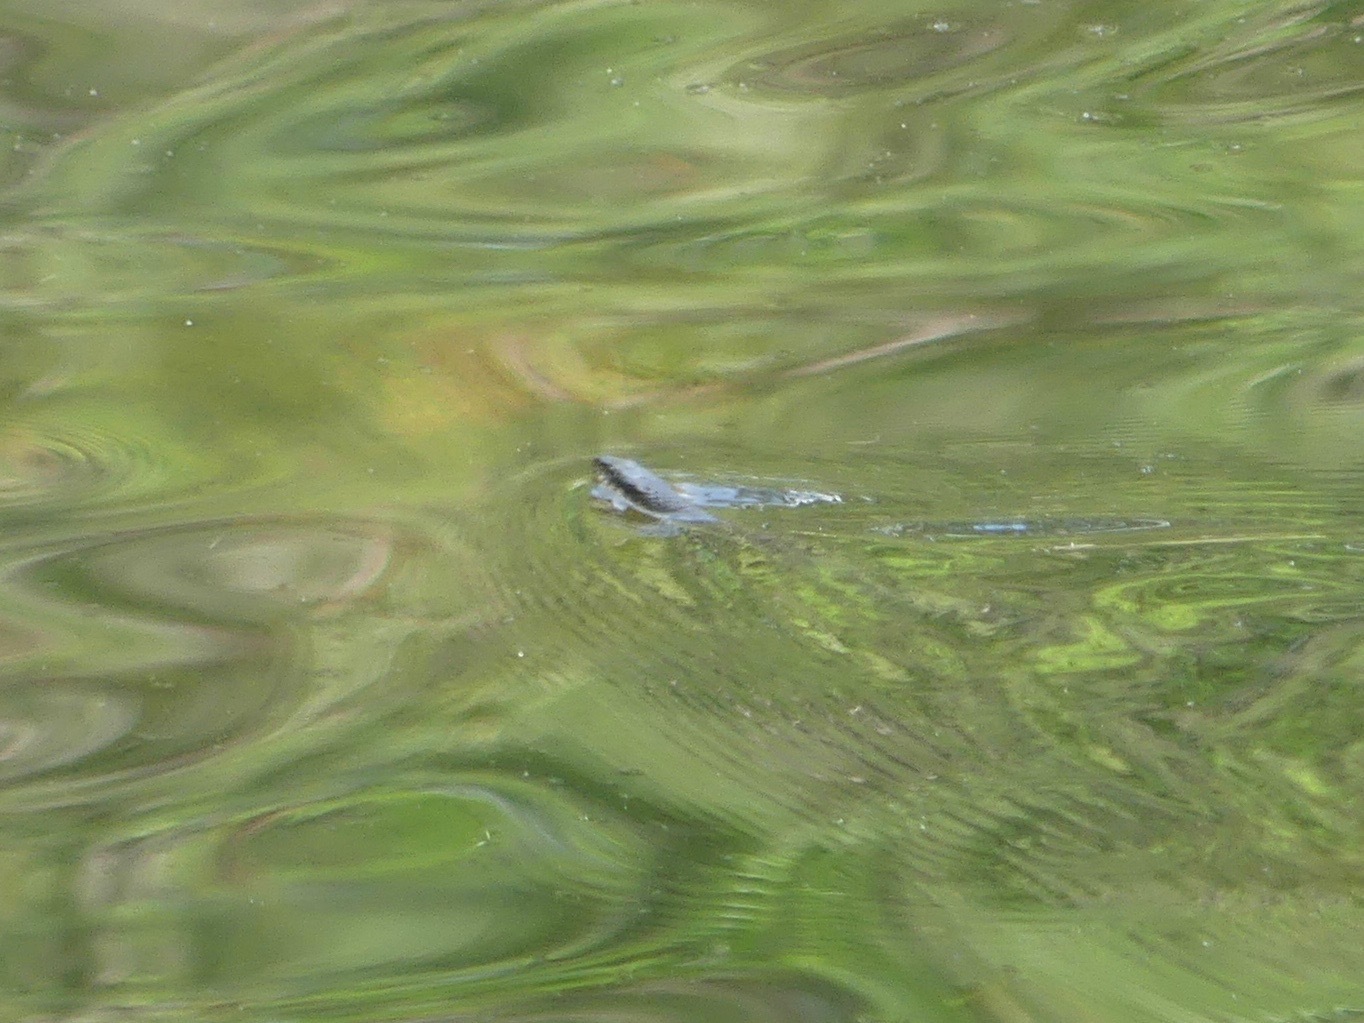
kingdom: Animalia
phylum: Chordata
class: Squamata
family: Colubridae
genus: Nerodia
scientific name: Nerodia erythrogaster
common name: Plainbelly water snake
